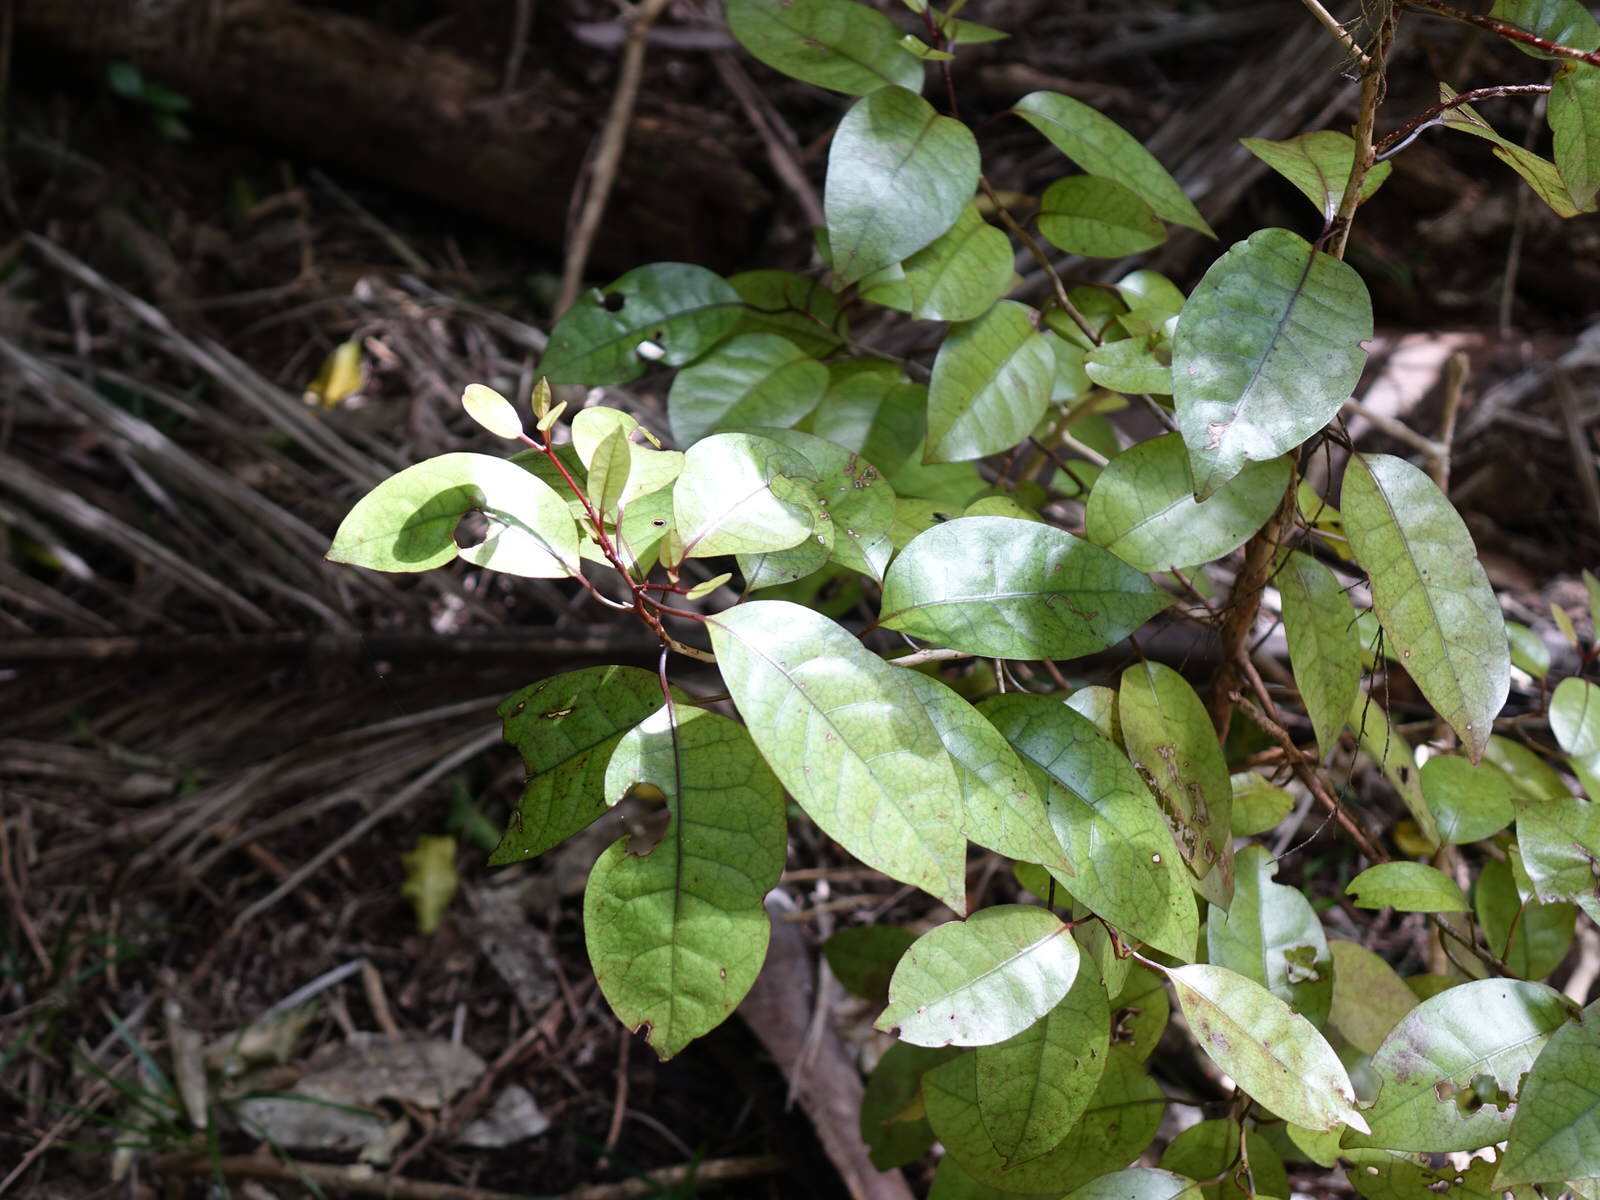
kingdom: Plantae
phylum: Tracheophyta
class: Magnoliopsida
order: Laurales
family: Lauraceae
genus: Litsea
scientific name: Litsea calicaris
